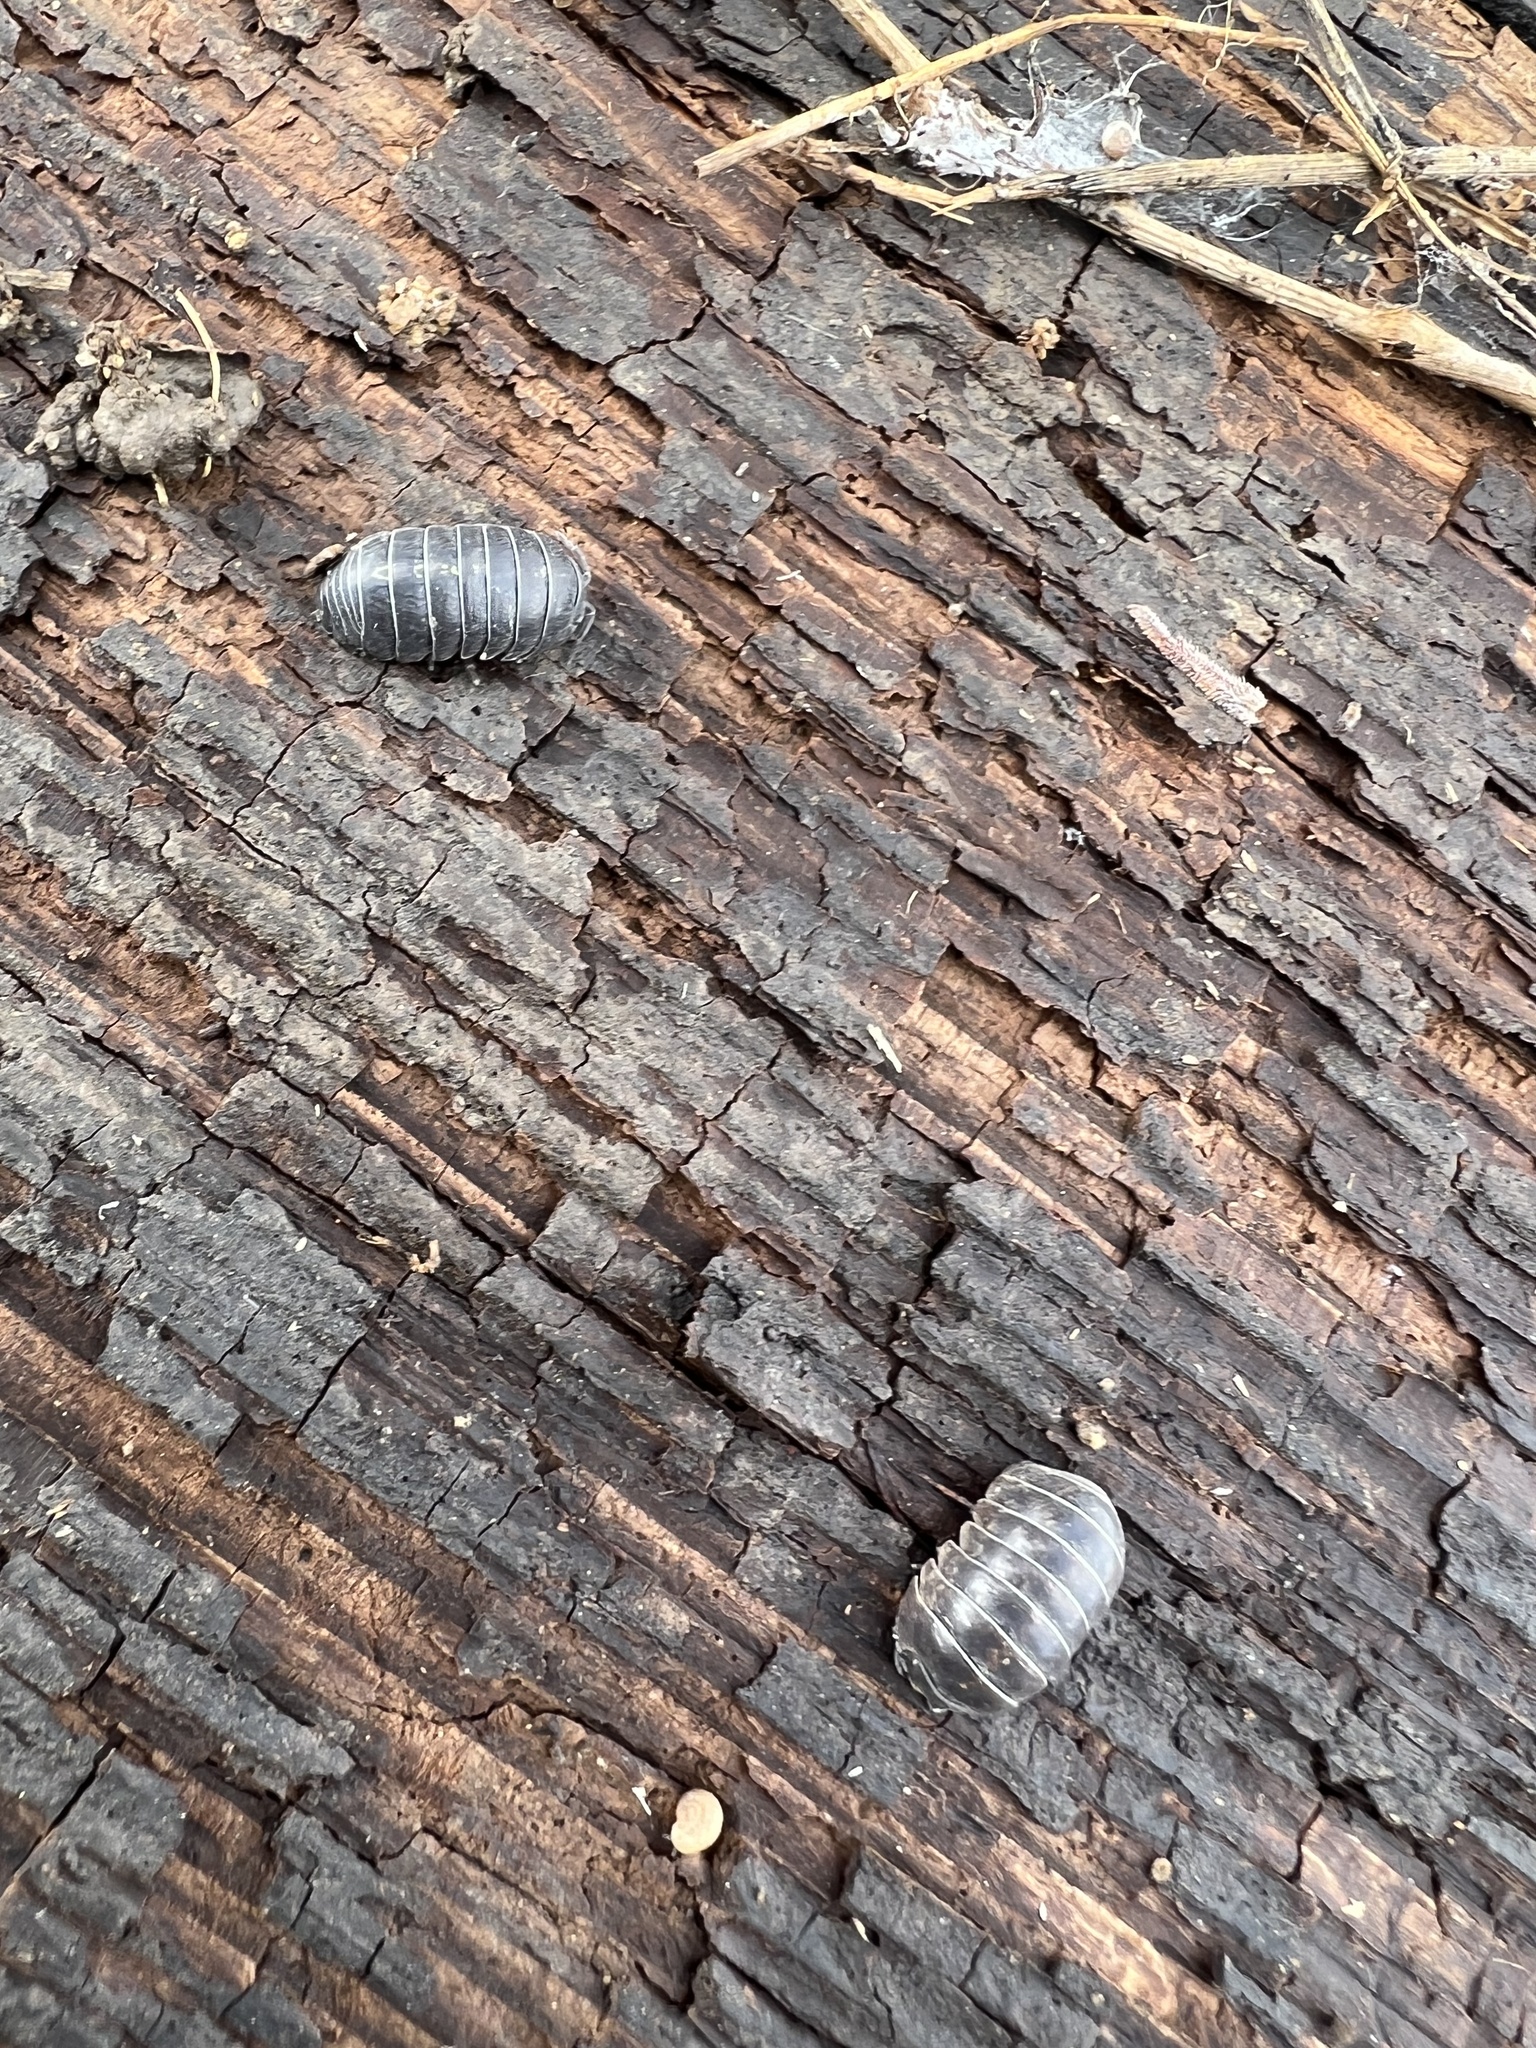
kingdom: Animalia
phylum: Arthropoda
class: Malacostraca
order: Isopoda
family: Armadillidiidae
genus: Armadillidium
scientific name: Armadillidium vulgare
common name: Common pill woodlouse
